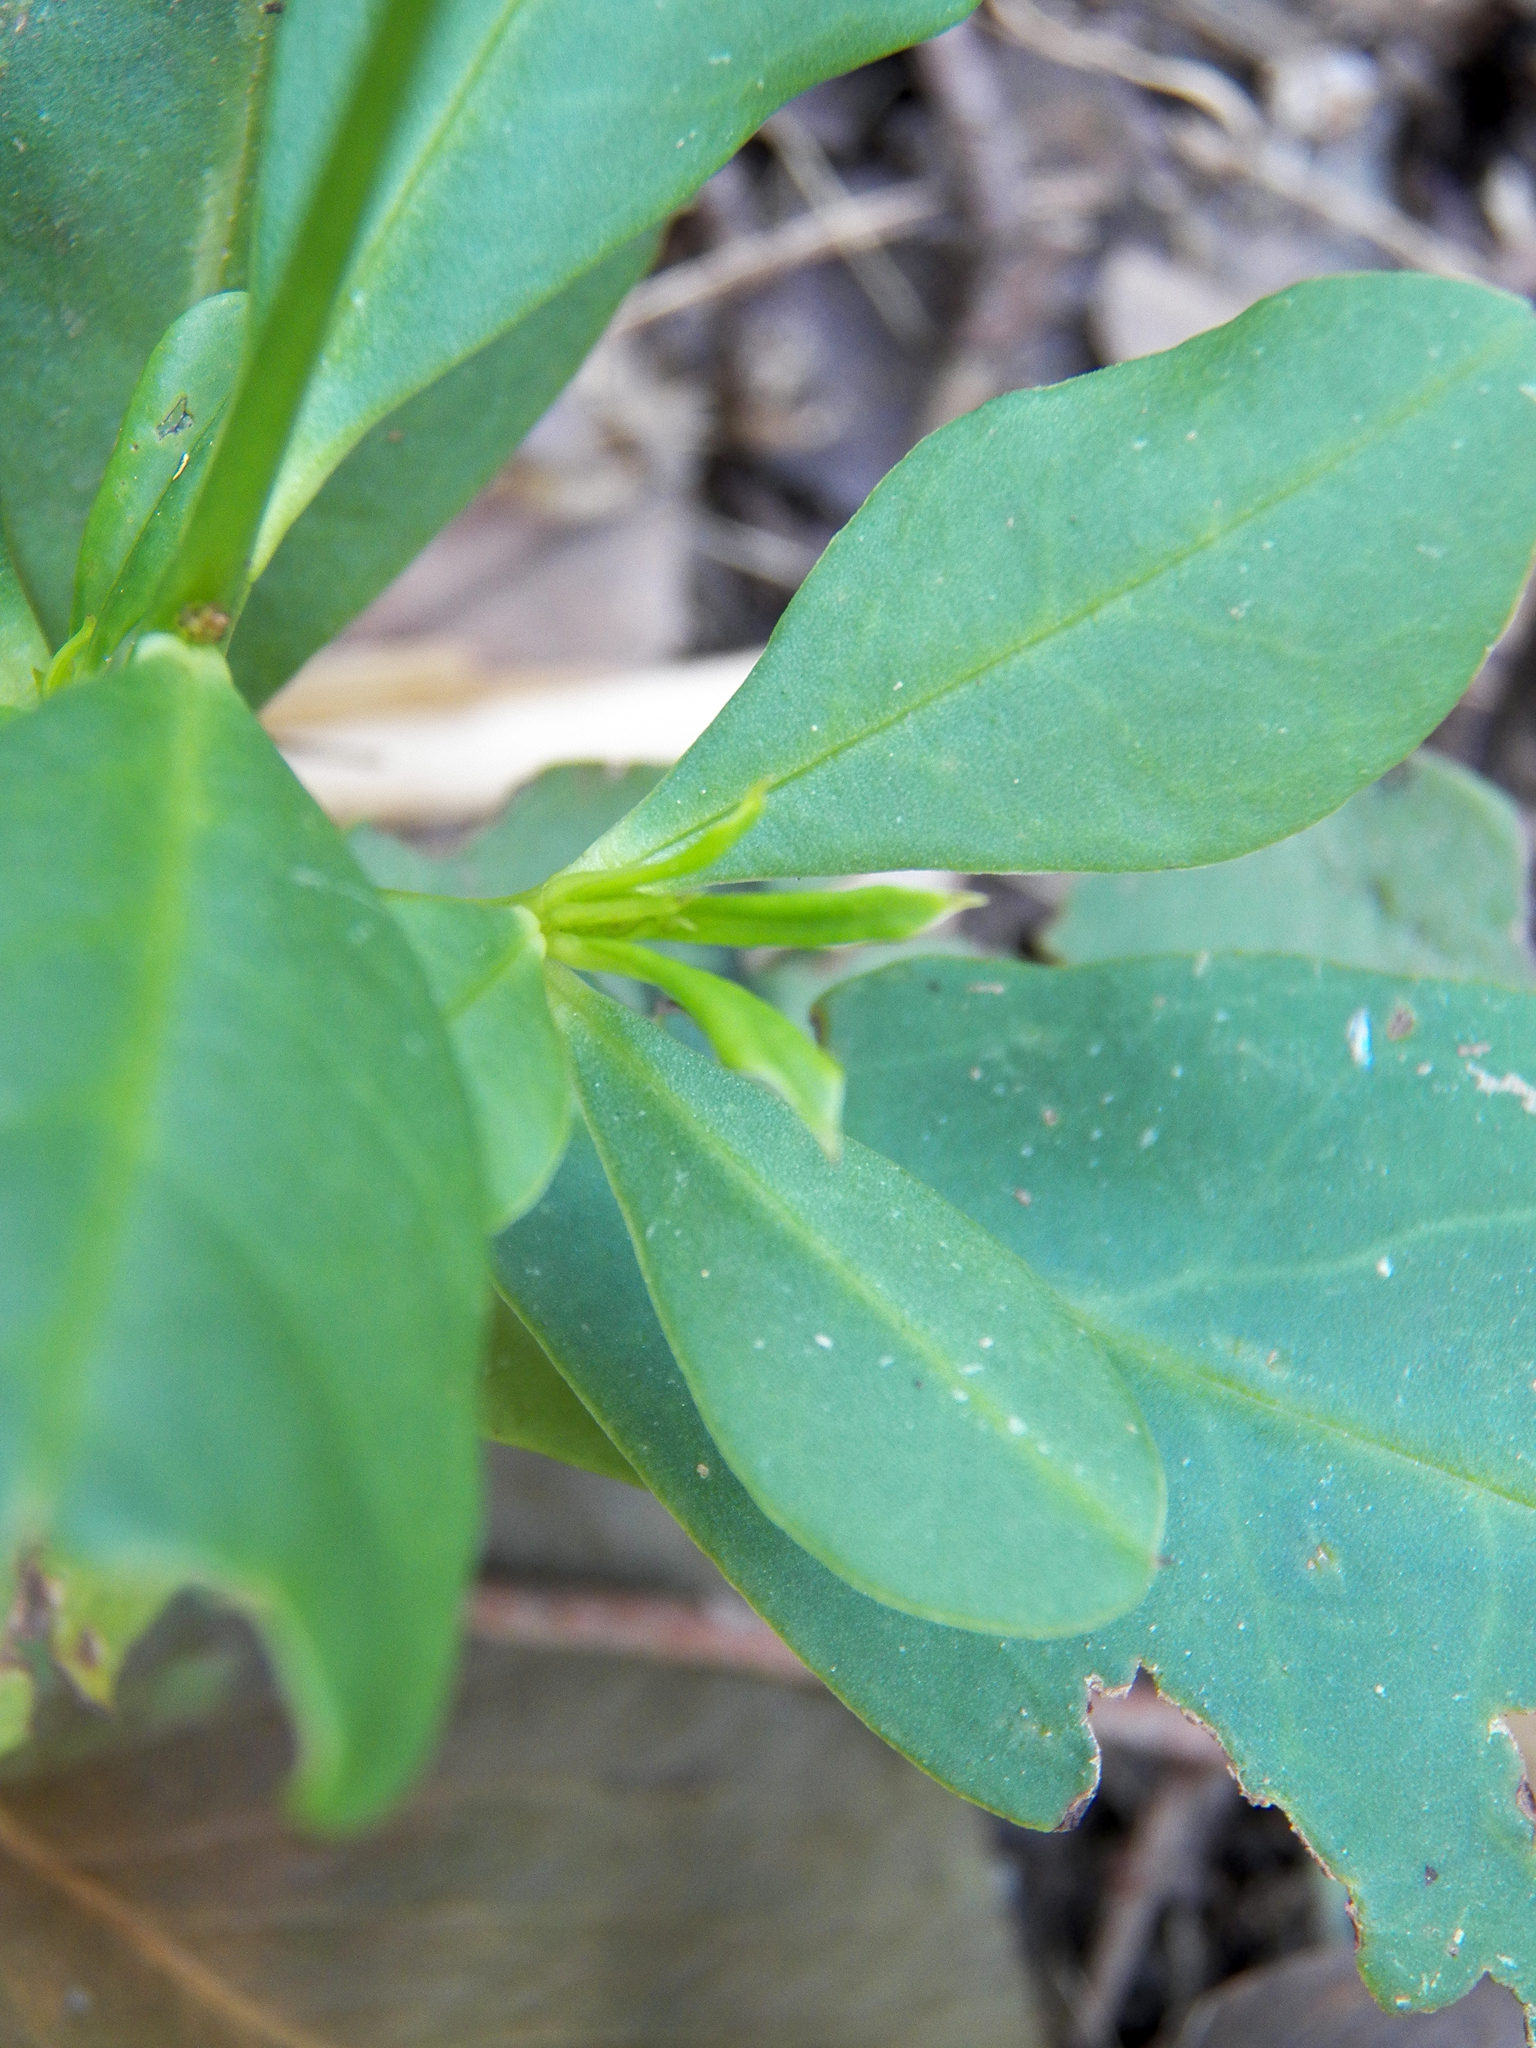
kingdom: Plantae
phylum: Tracheophyta
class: Magnoliopsida
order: Caryophyllales
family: Talinaceae
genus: Talinum
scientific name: Talinum paniculatum
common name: Jewels of opar
